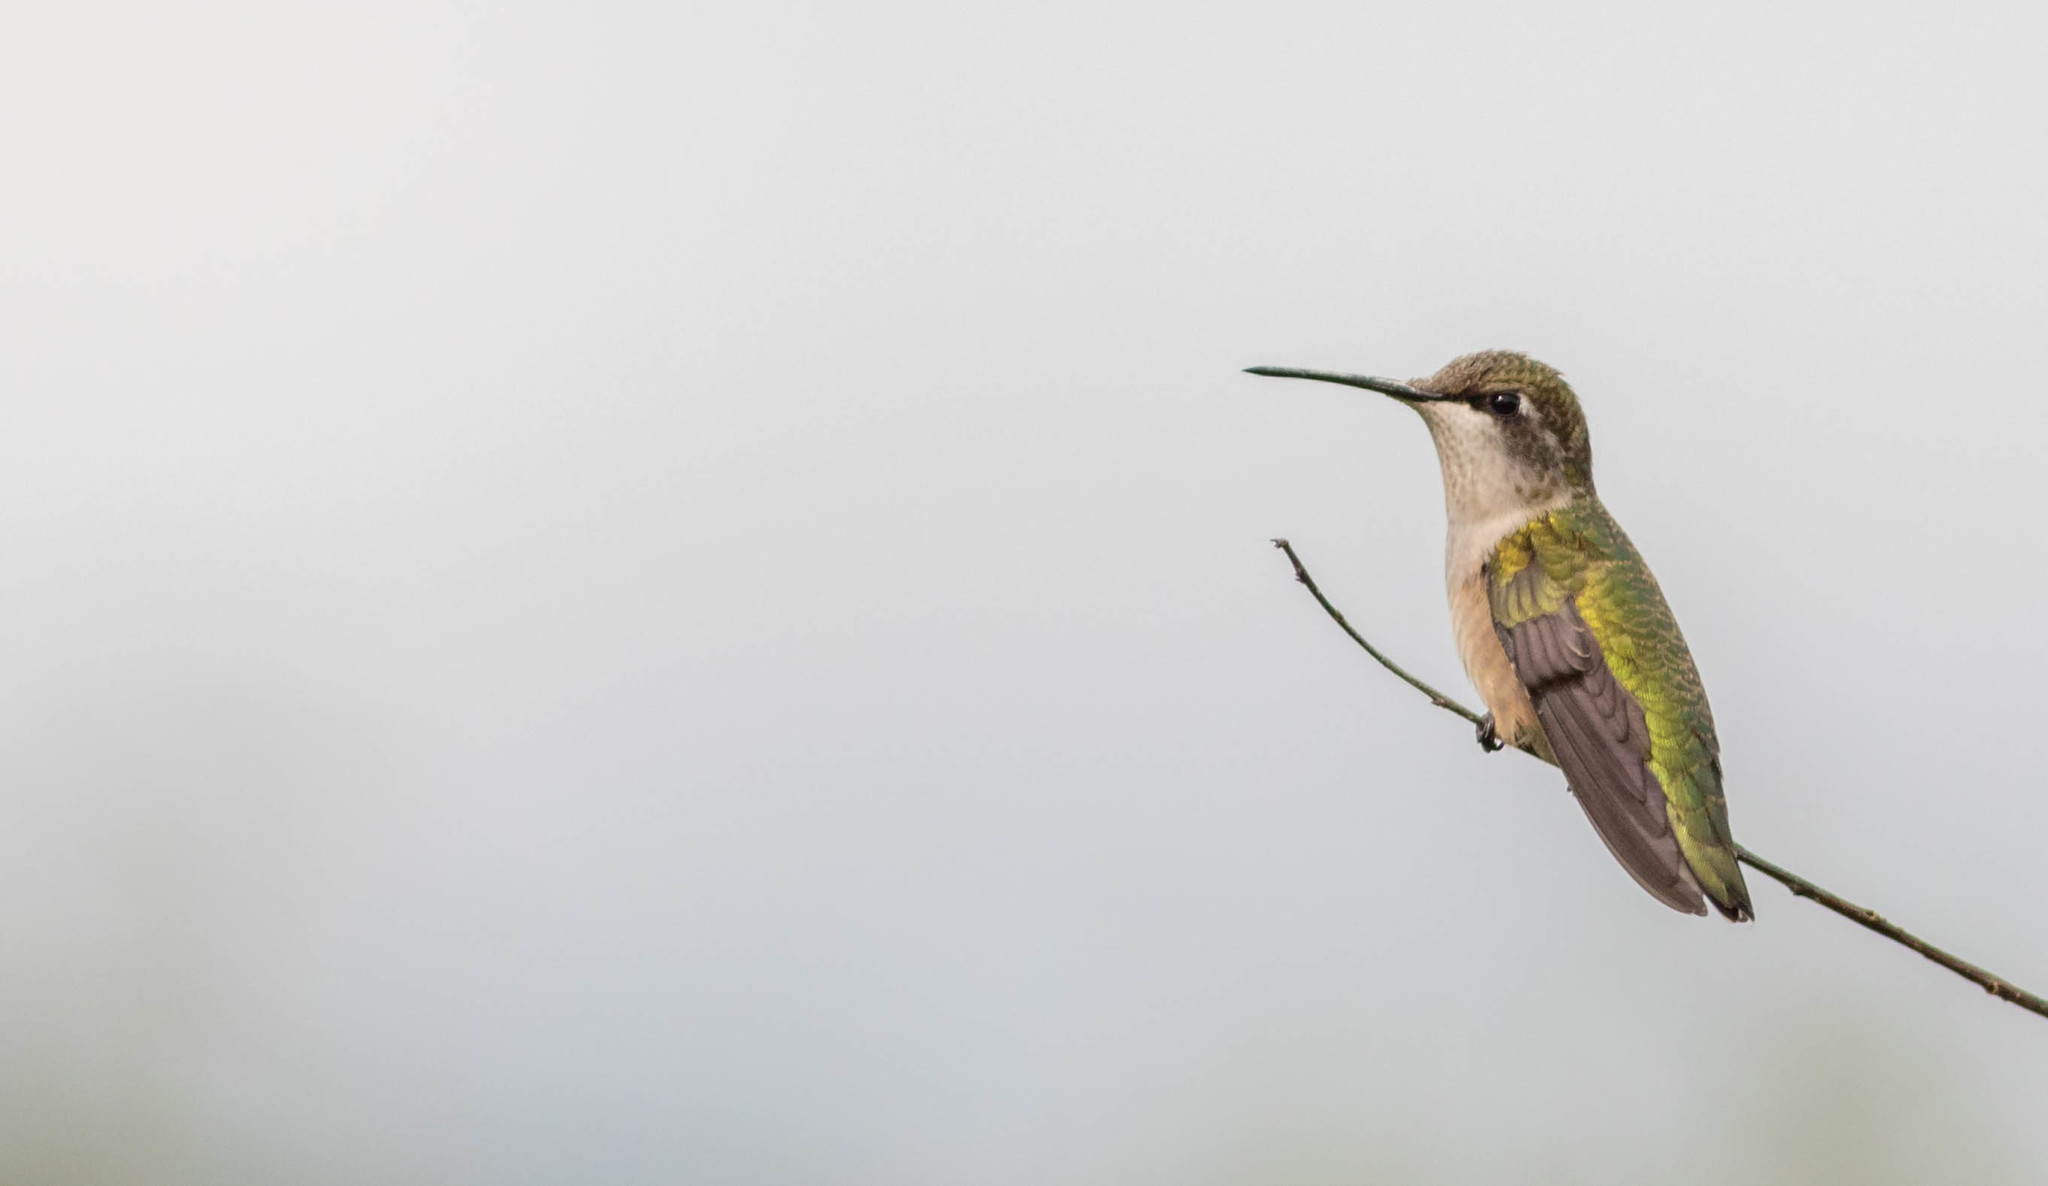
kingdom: Animalia
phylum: Chordata
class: Aves
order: Apodiformes
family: Trochilidae
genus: Archilochus
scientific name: Archilochus colubris
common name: Ruby-throated hummingbird
